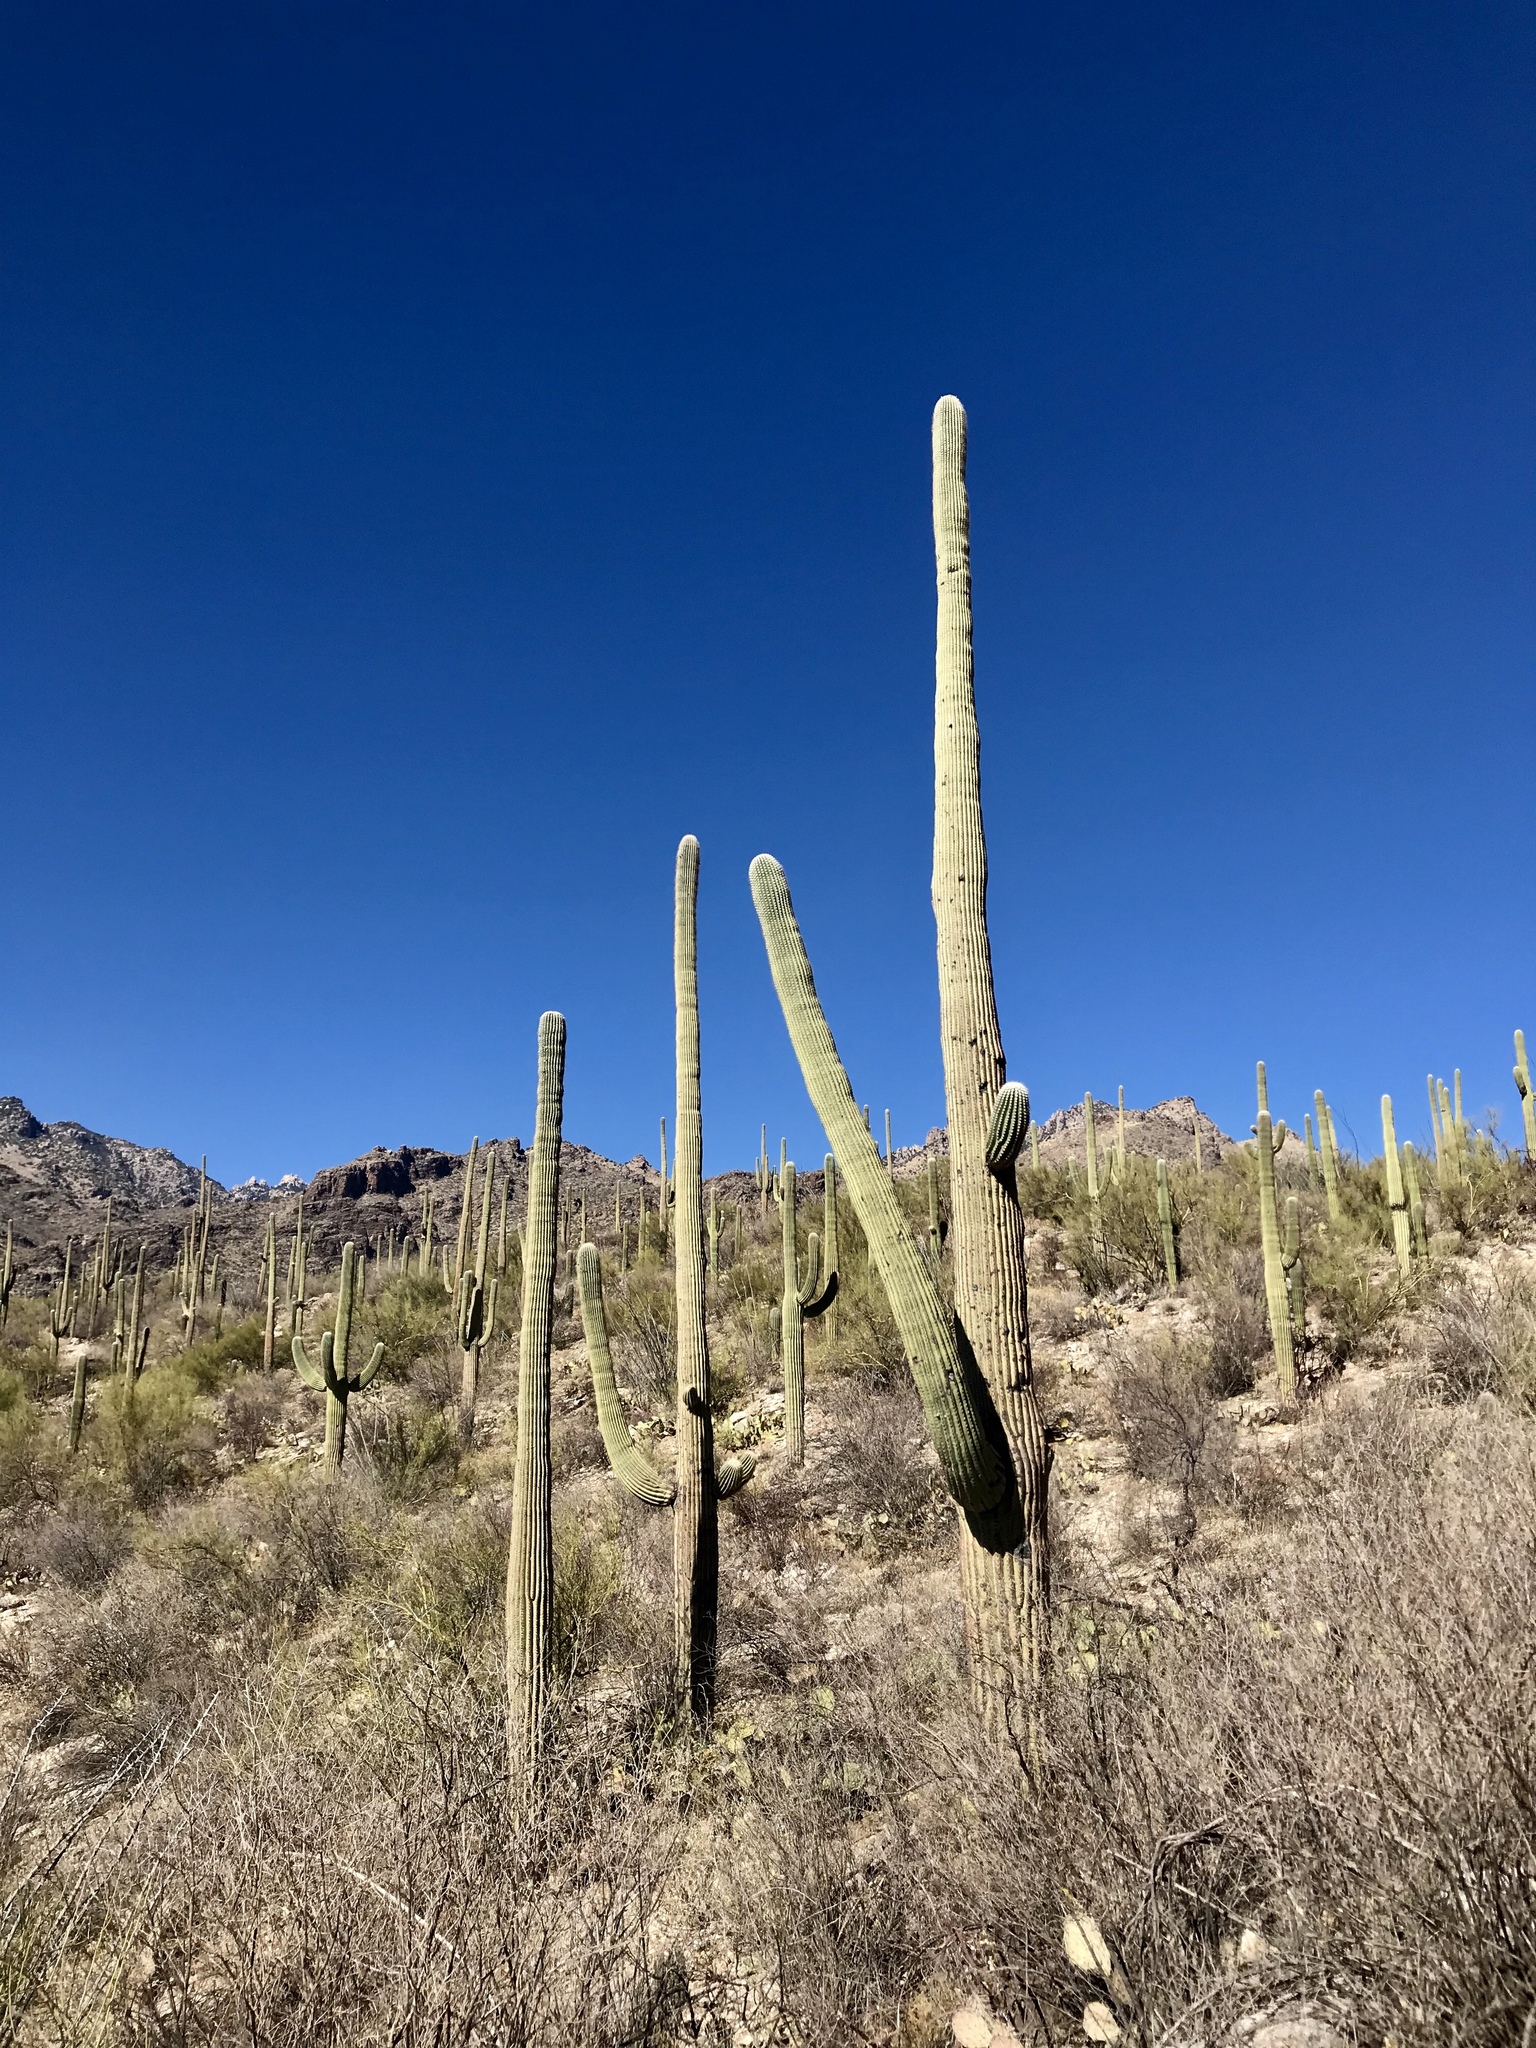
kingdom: Plantae
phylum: Tracheophyta
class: Magnoliopsida
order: Caryophyllales
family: Cactaceae
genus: Carnegiea
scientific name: Carnegiea gigantea
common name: Saguaro
